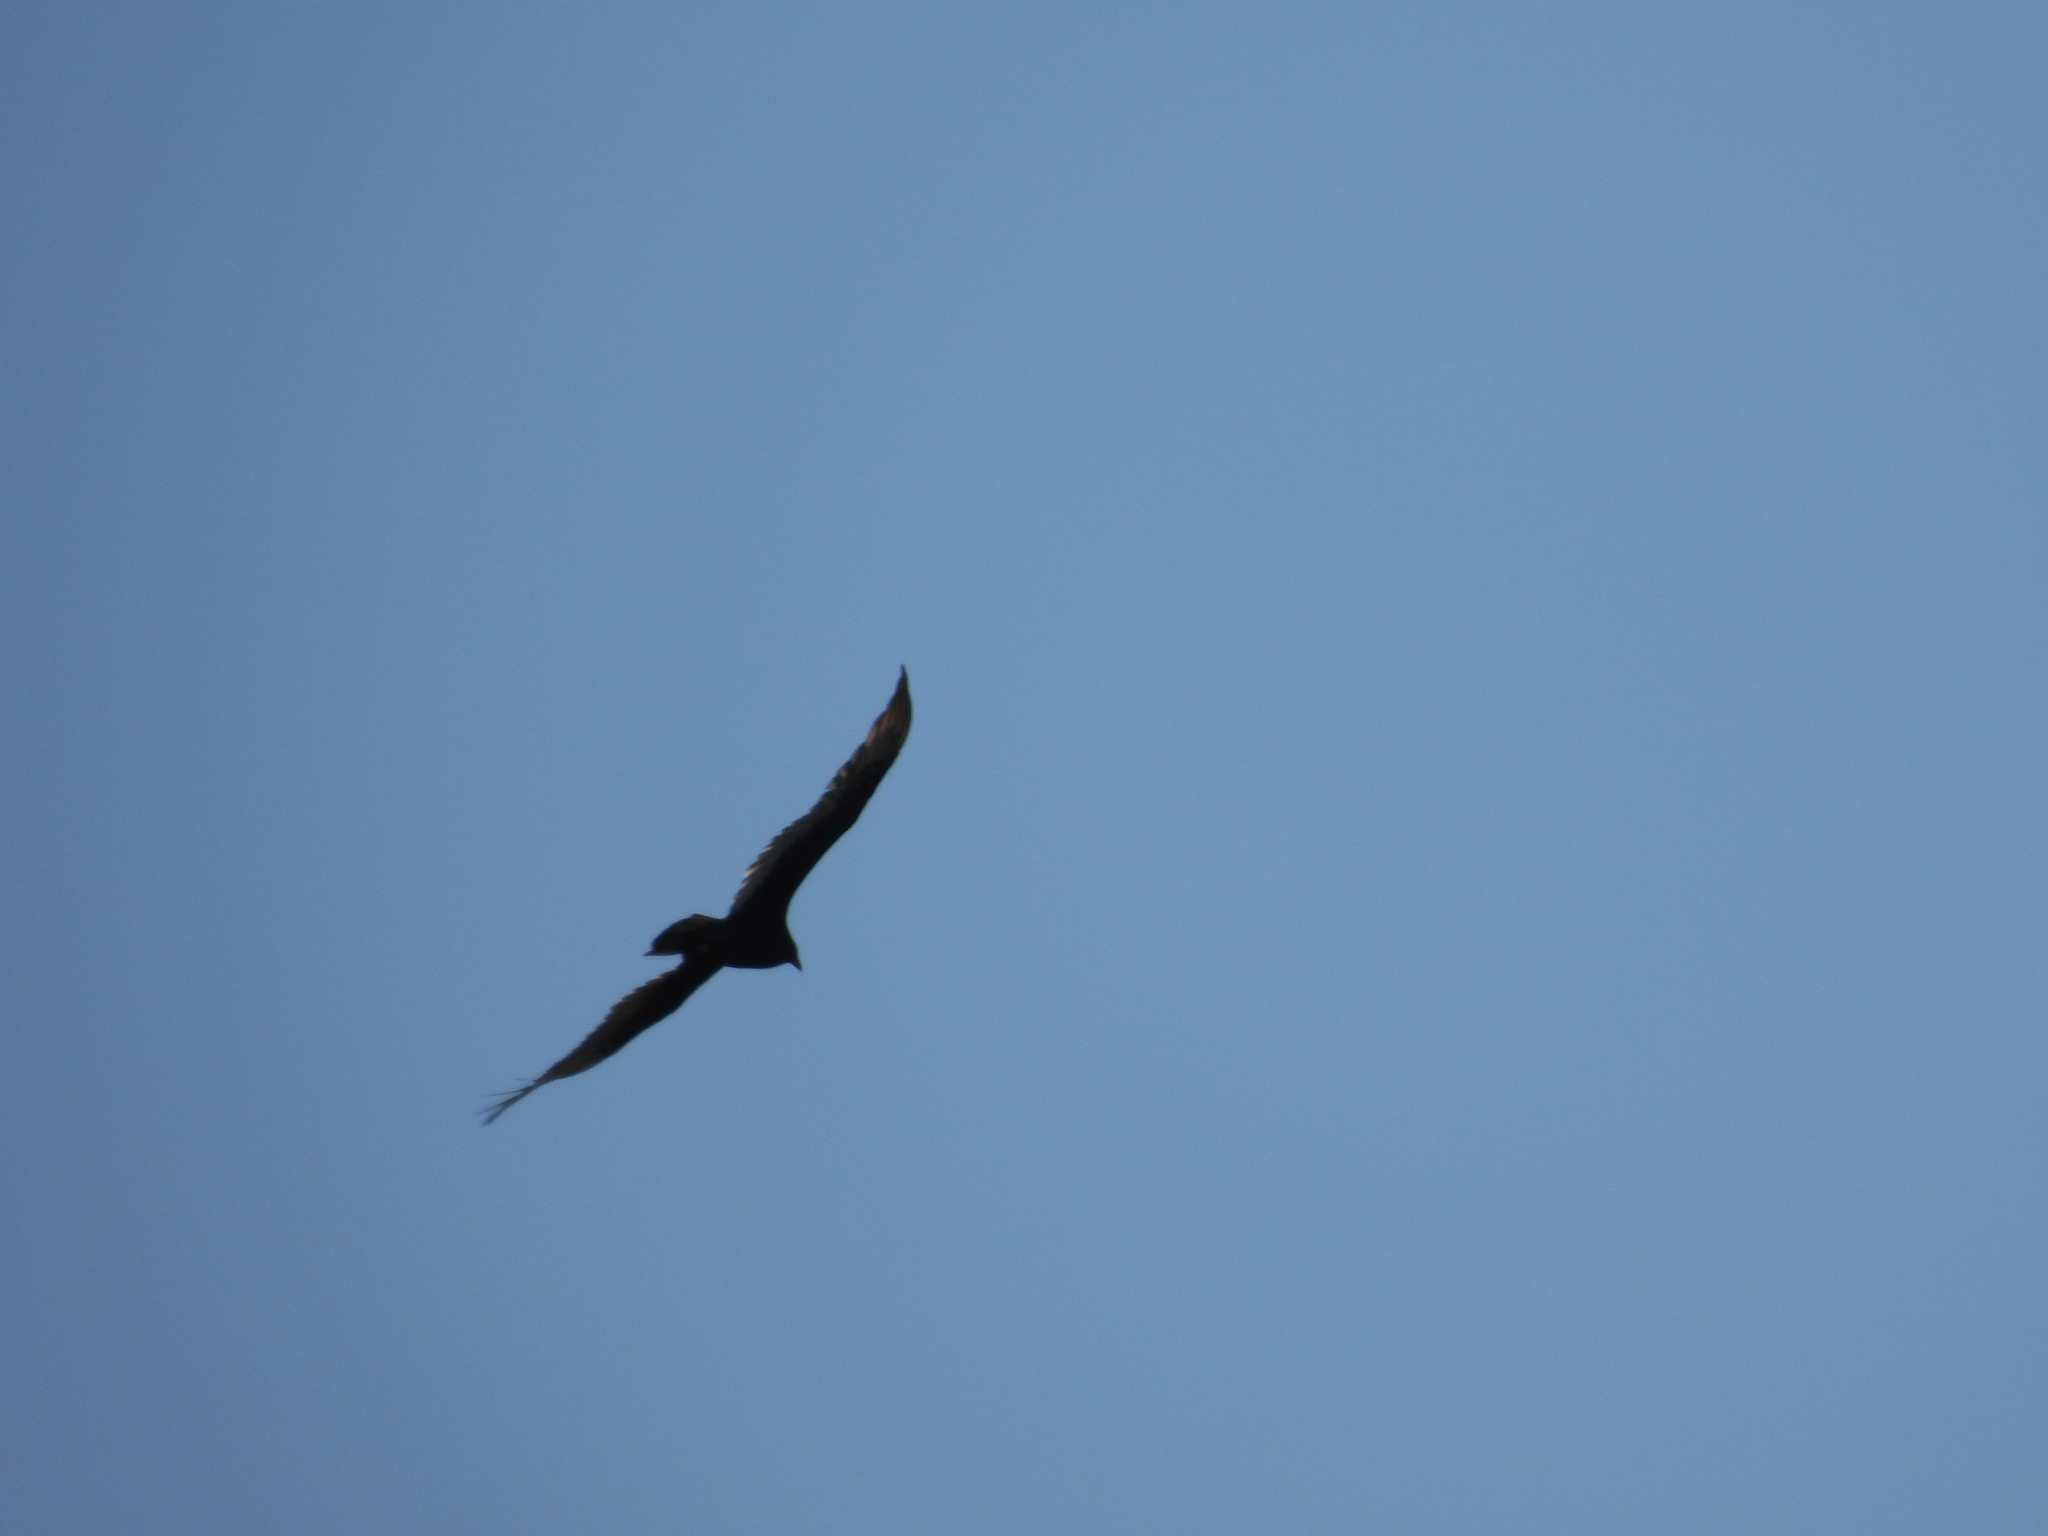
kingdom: Animalia
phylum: Chordata
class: Aves
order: Accipitriformes
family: Cathartidae
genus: Cathartes
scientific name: Cathartes aura
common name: Turkey vulture
